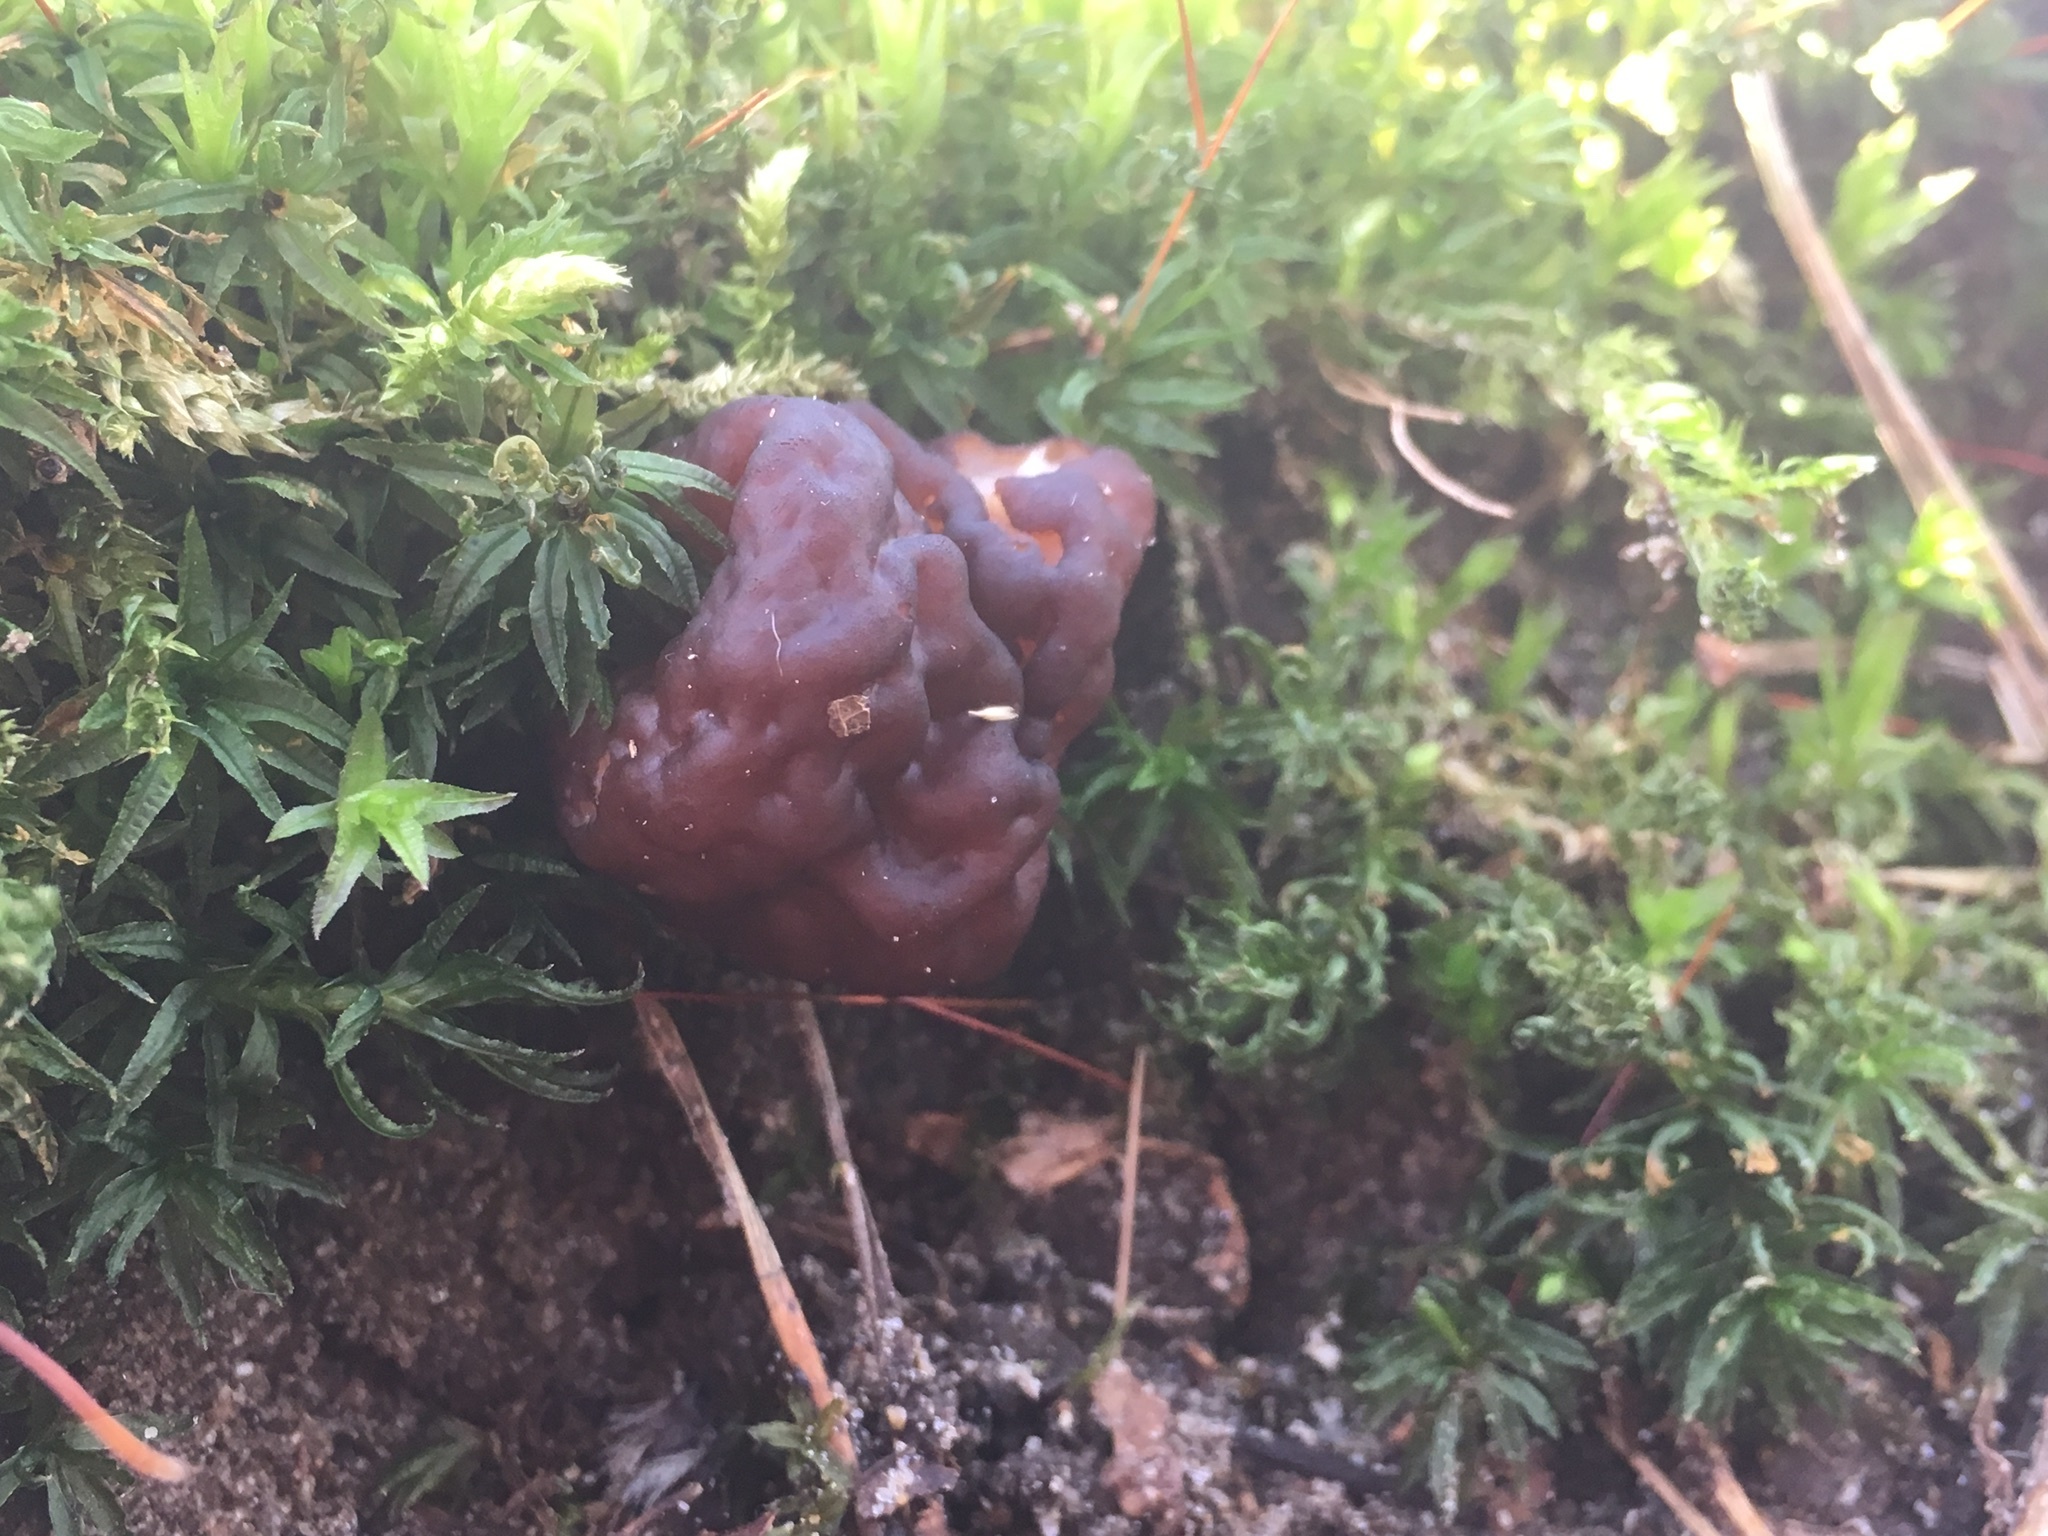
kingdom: Fungi
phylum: Ascomycota
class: Pezizomycetes
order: Pezizales
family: Discinaceae
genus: Gyromitra
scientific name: Gyromitra esculenta
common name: False morel
